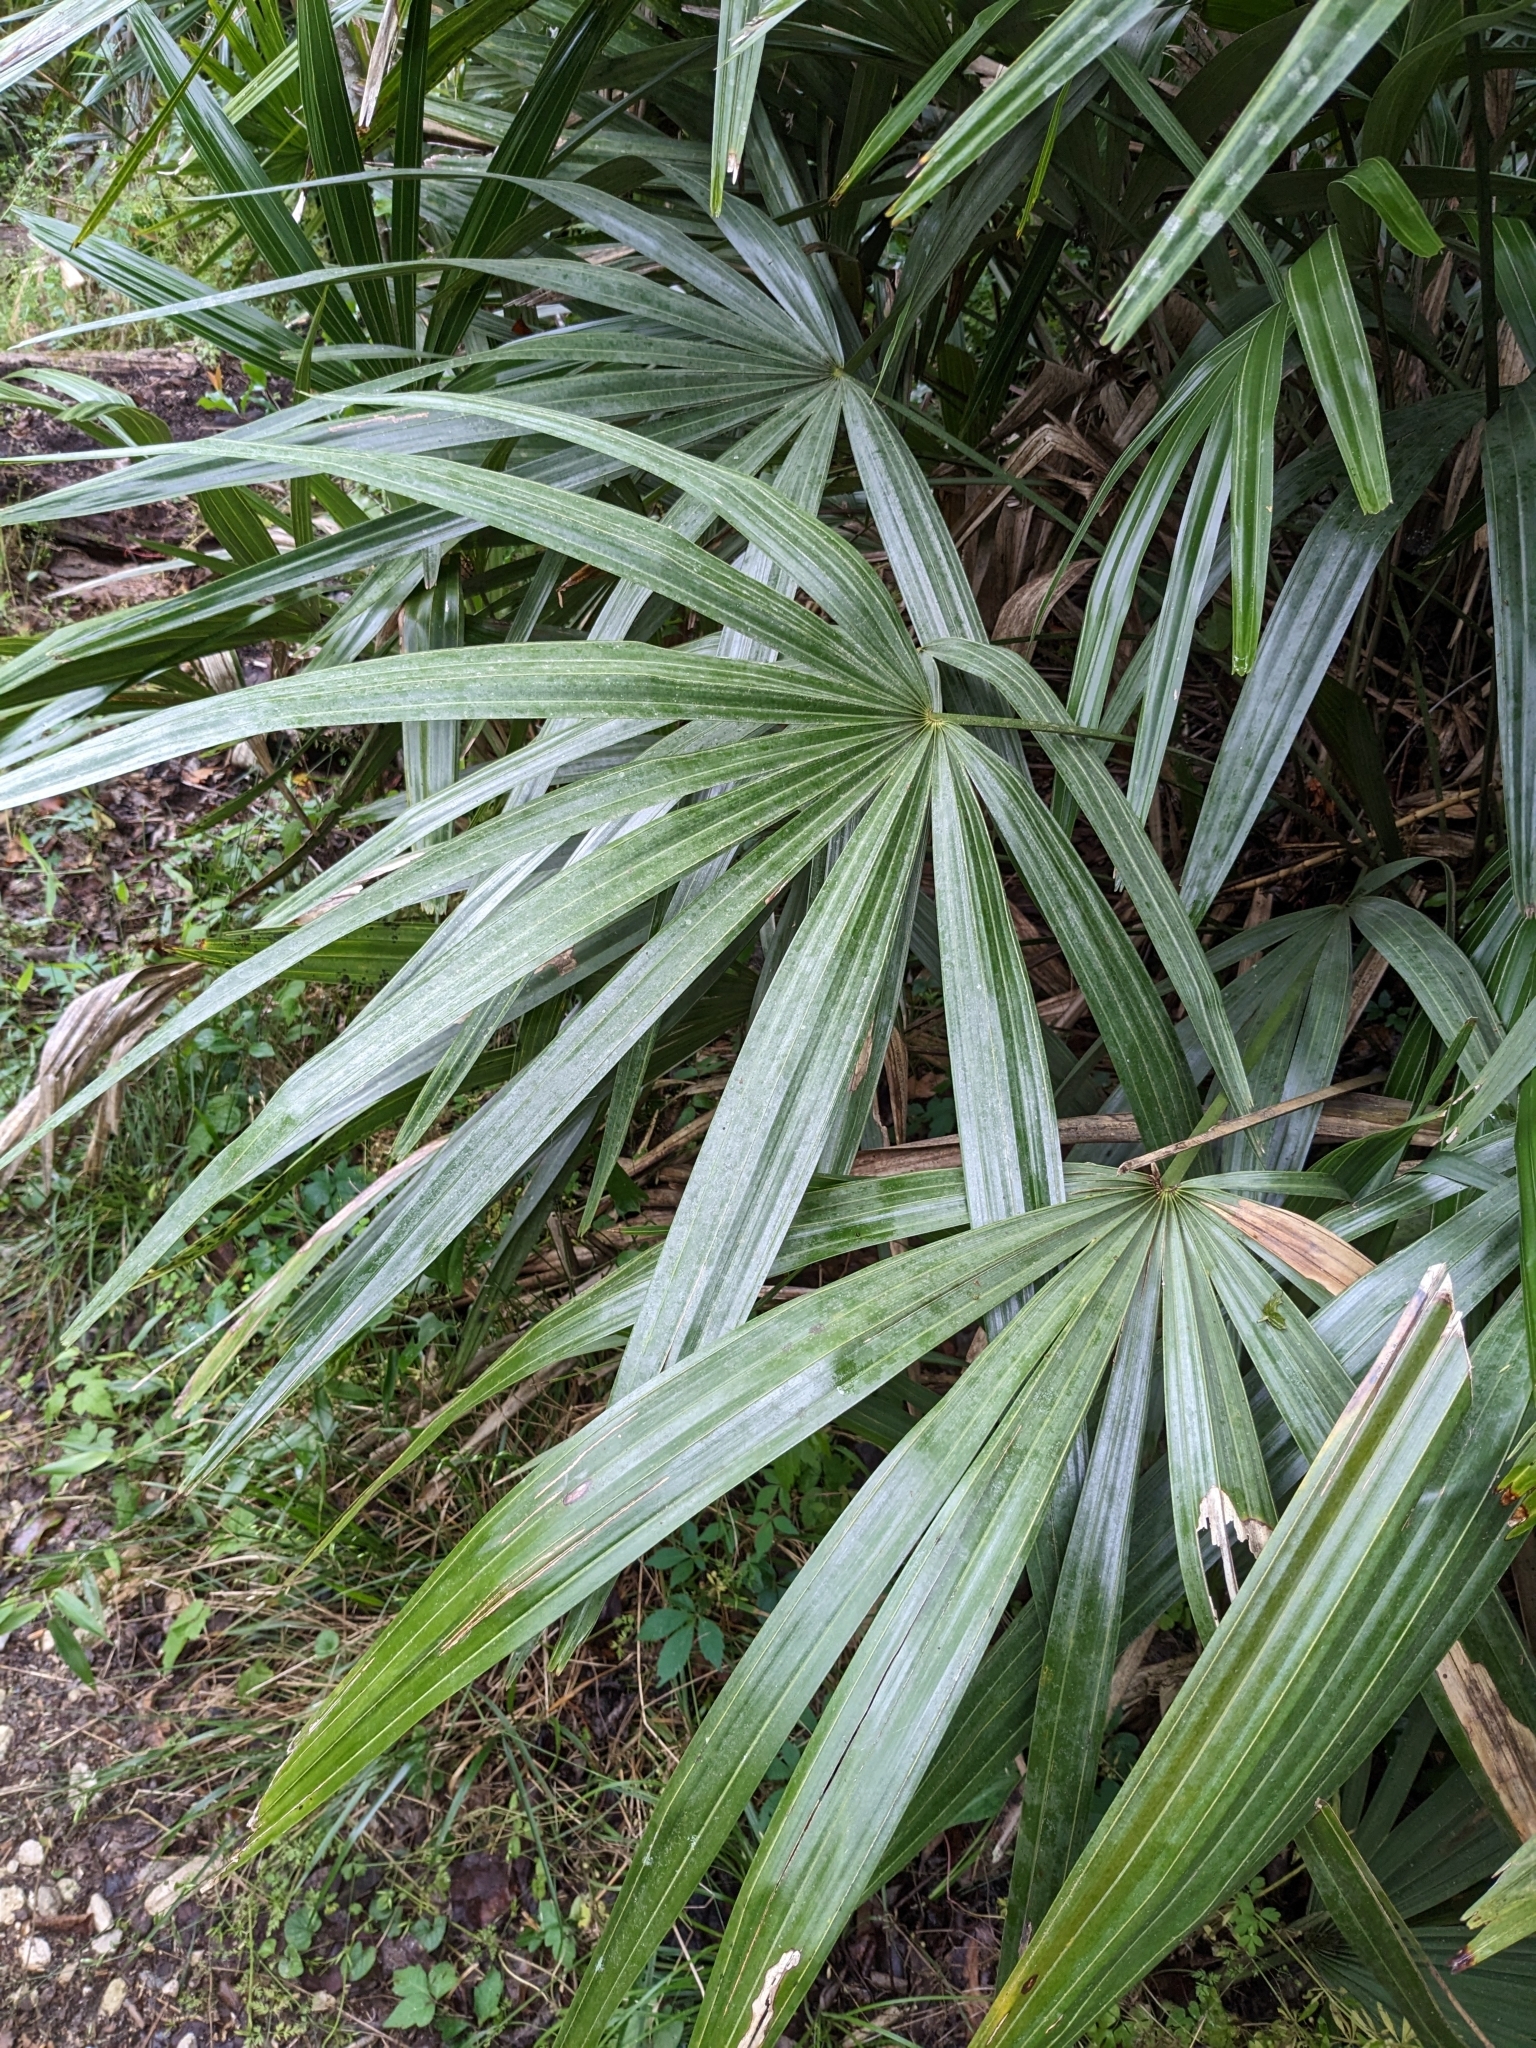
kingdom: Plantae
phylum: Tracheophyta
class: Liliopsida
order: Arecales
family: Arecaceae
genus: Rhapidophyllum
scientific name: Rhapidophyllum hystrix
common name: Porcupine palm
